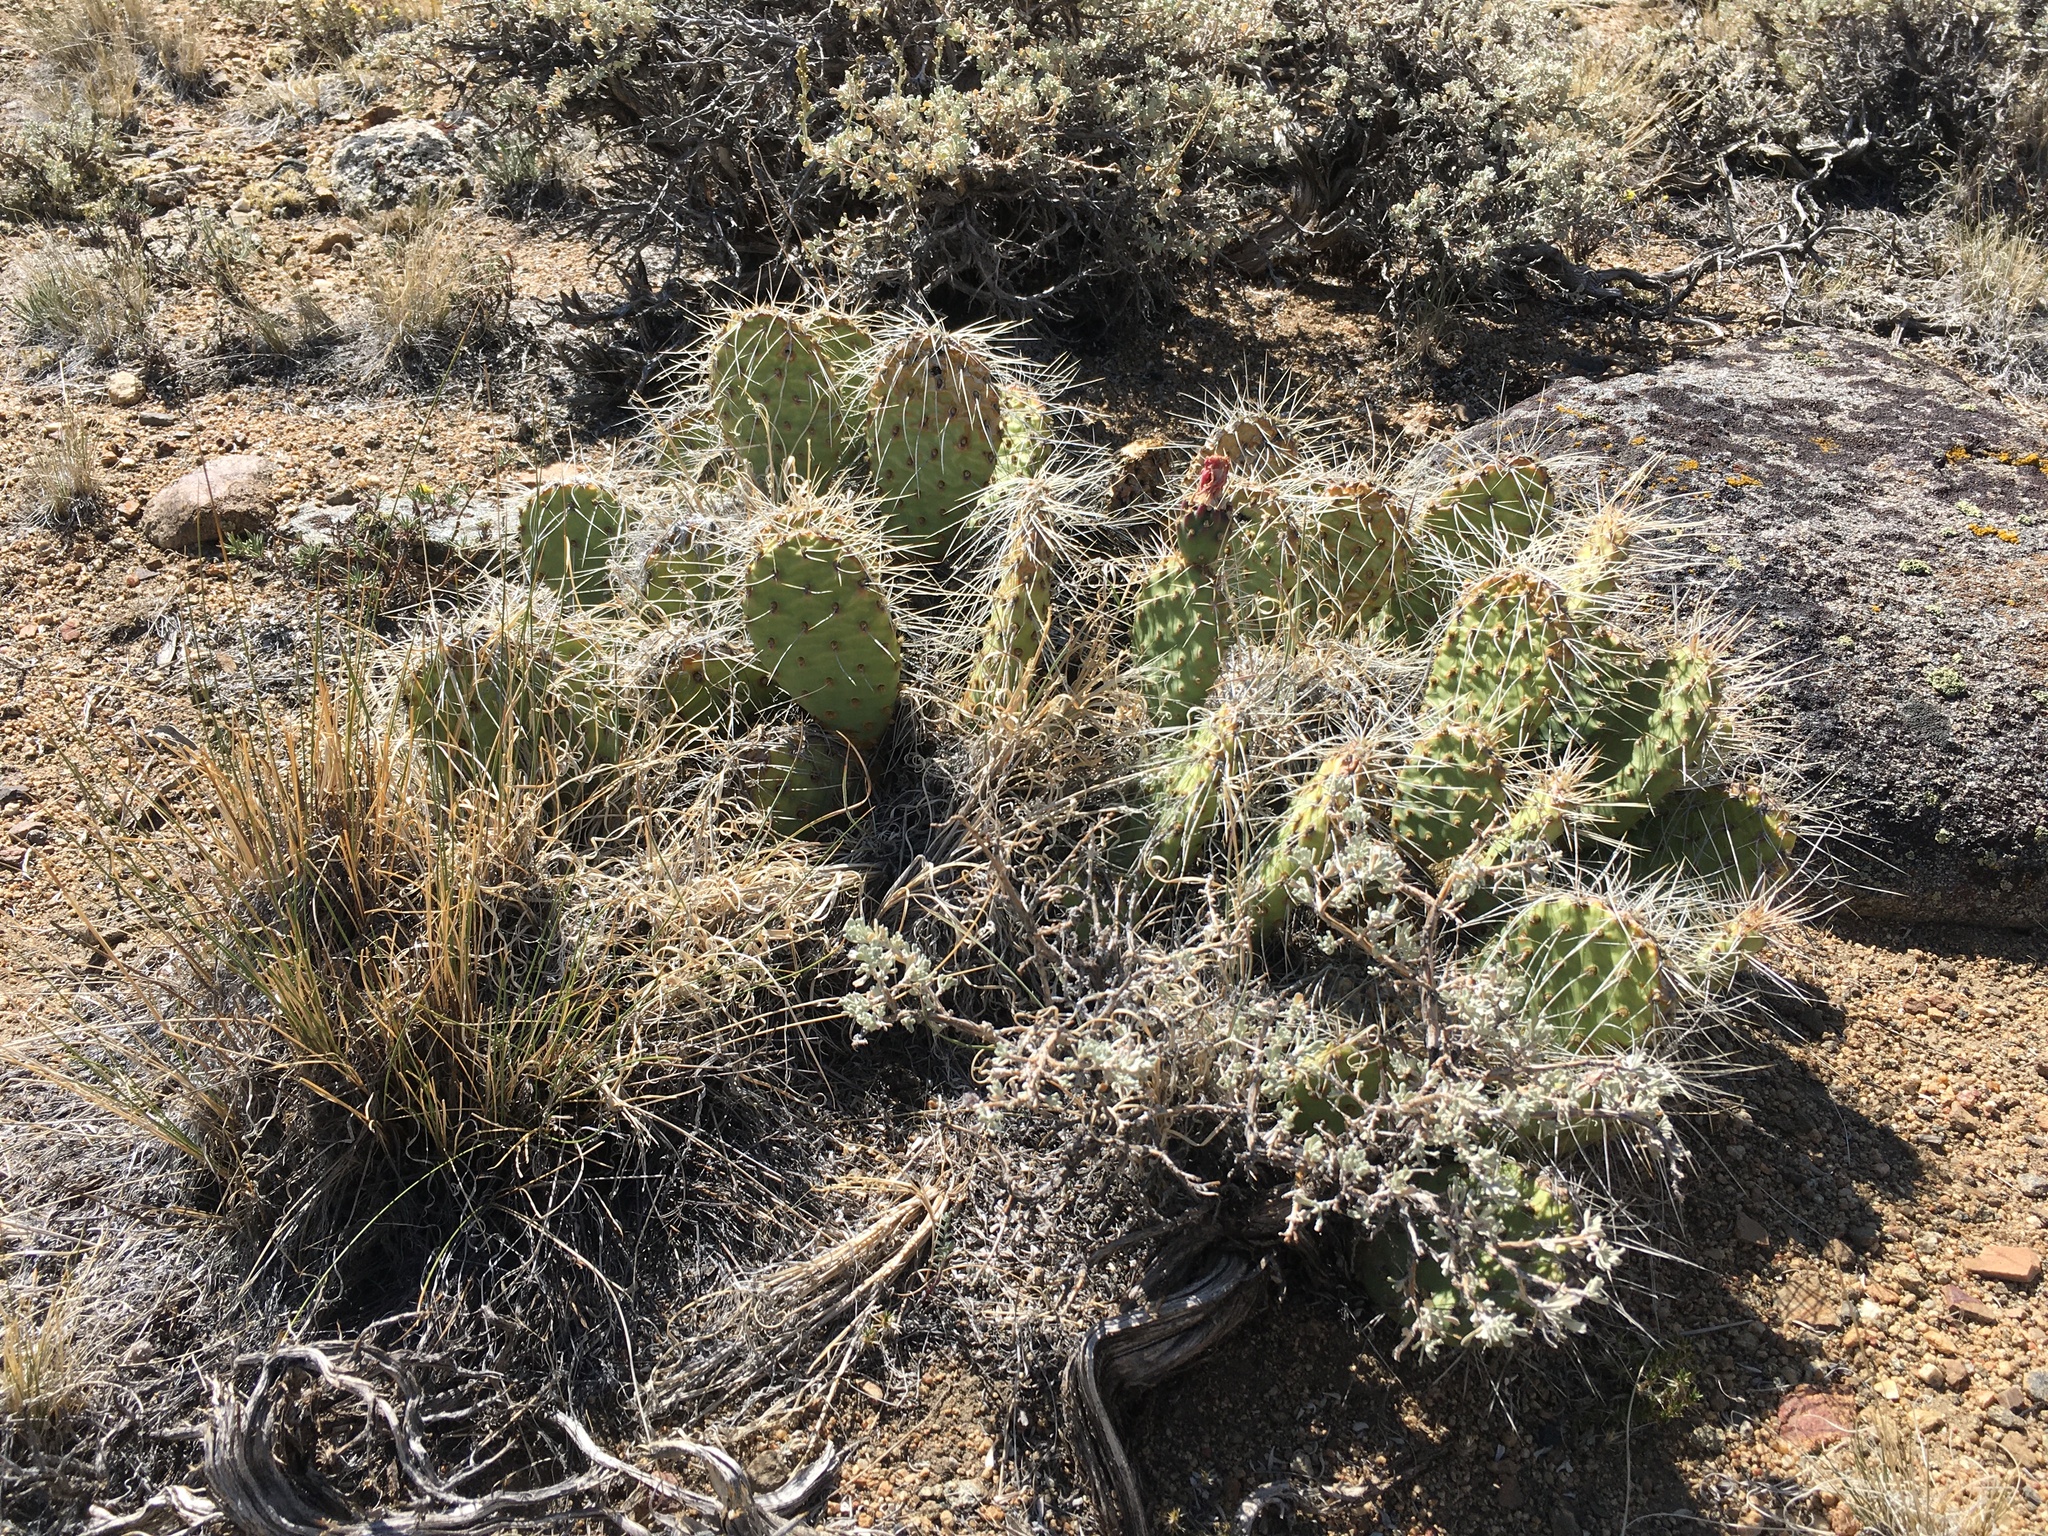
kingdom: Plantae
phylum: Tracheophyta
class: Magnoliopsida
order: Caryophyllales
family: Cactaceae
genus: Opuntia
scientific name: Opuntia polyacantha
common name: Plains prickly-pear
